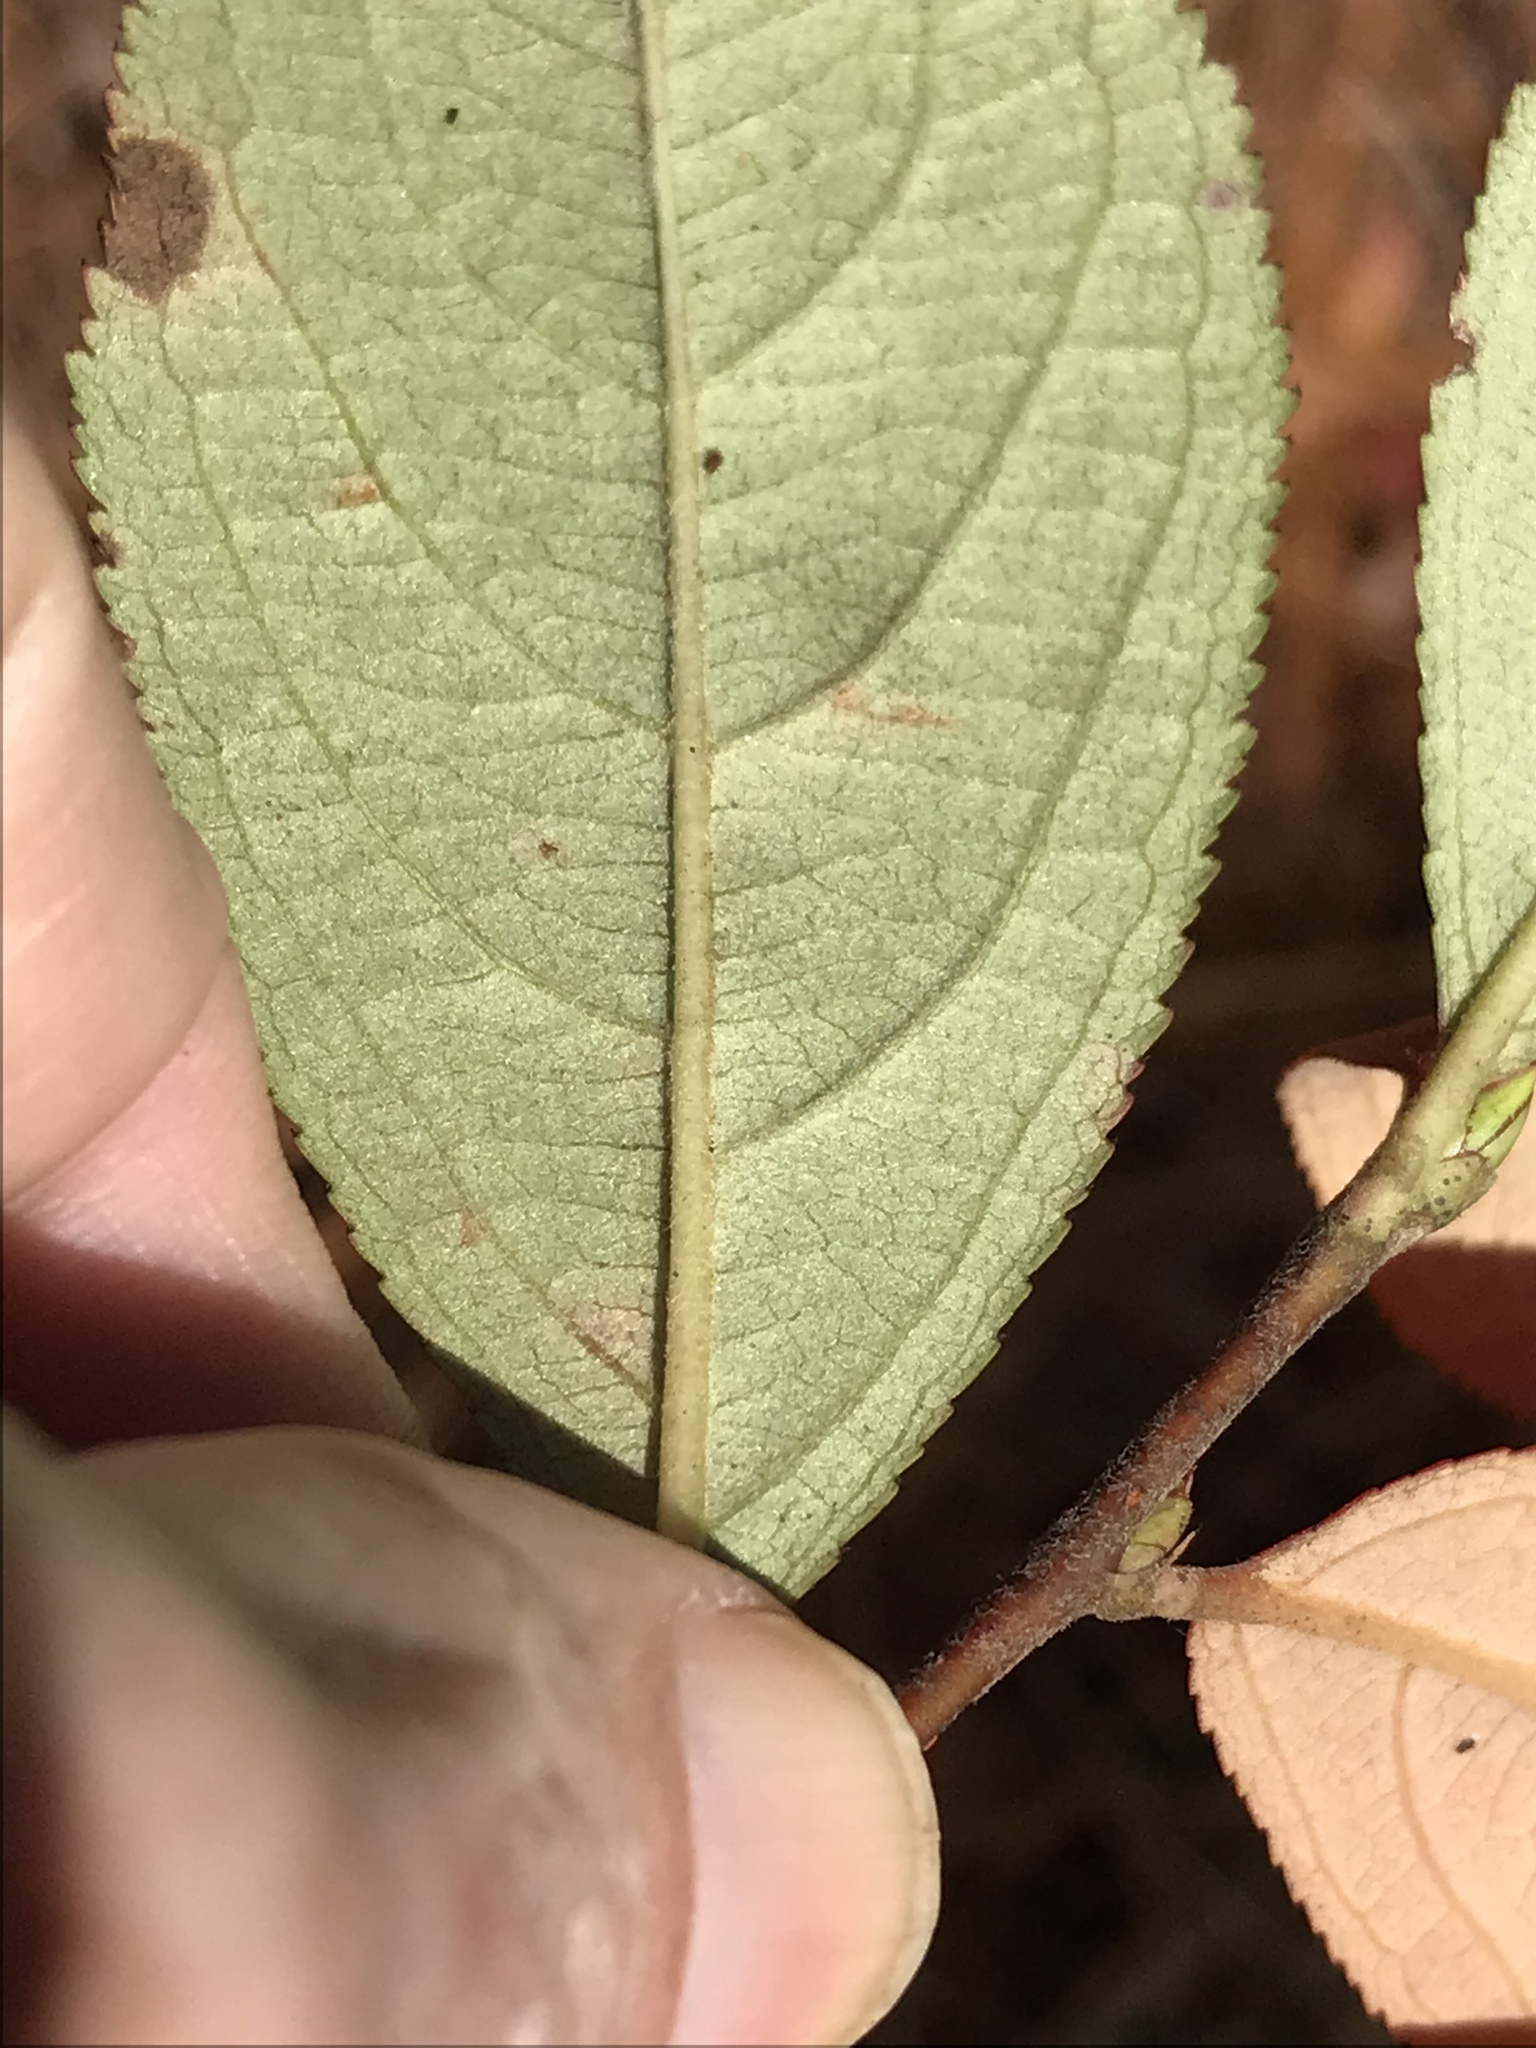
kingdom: Plantae
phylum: Tracheophyta
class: Magnoliopsida
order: Rosales
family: Rosaceae
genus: Aronia
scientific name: Aronia arbutifolia
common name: Red chokeberry
